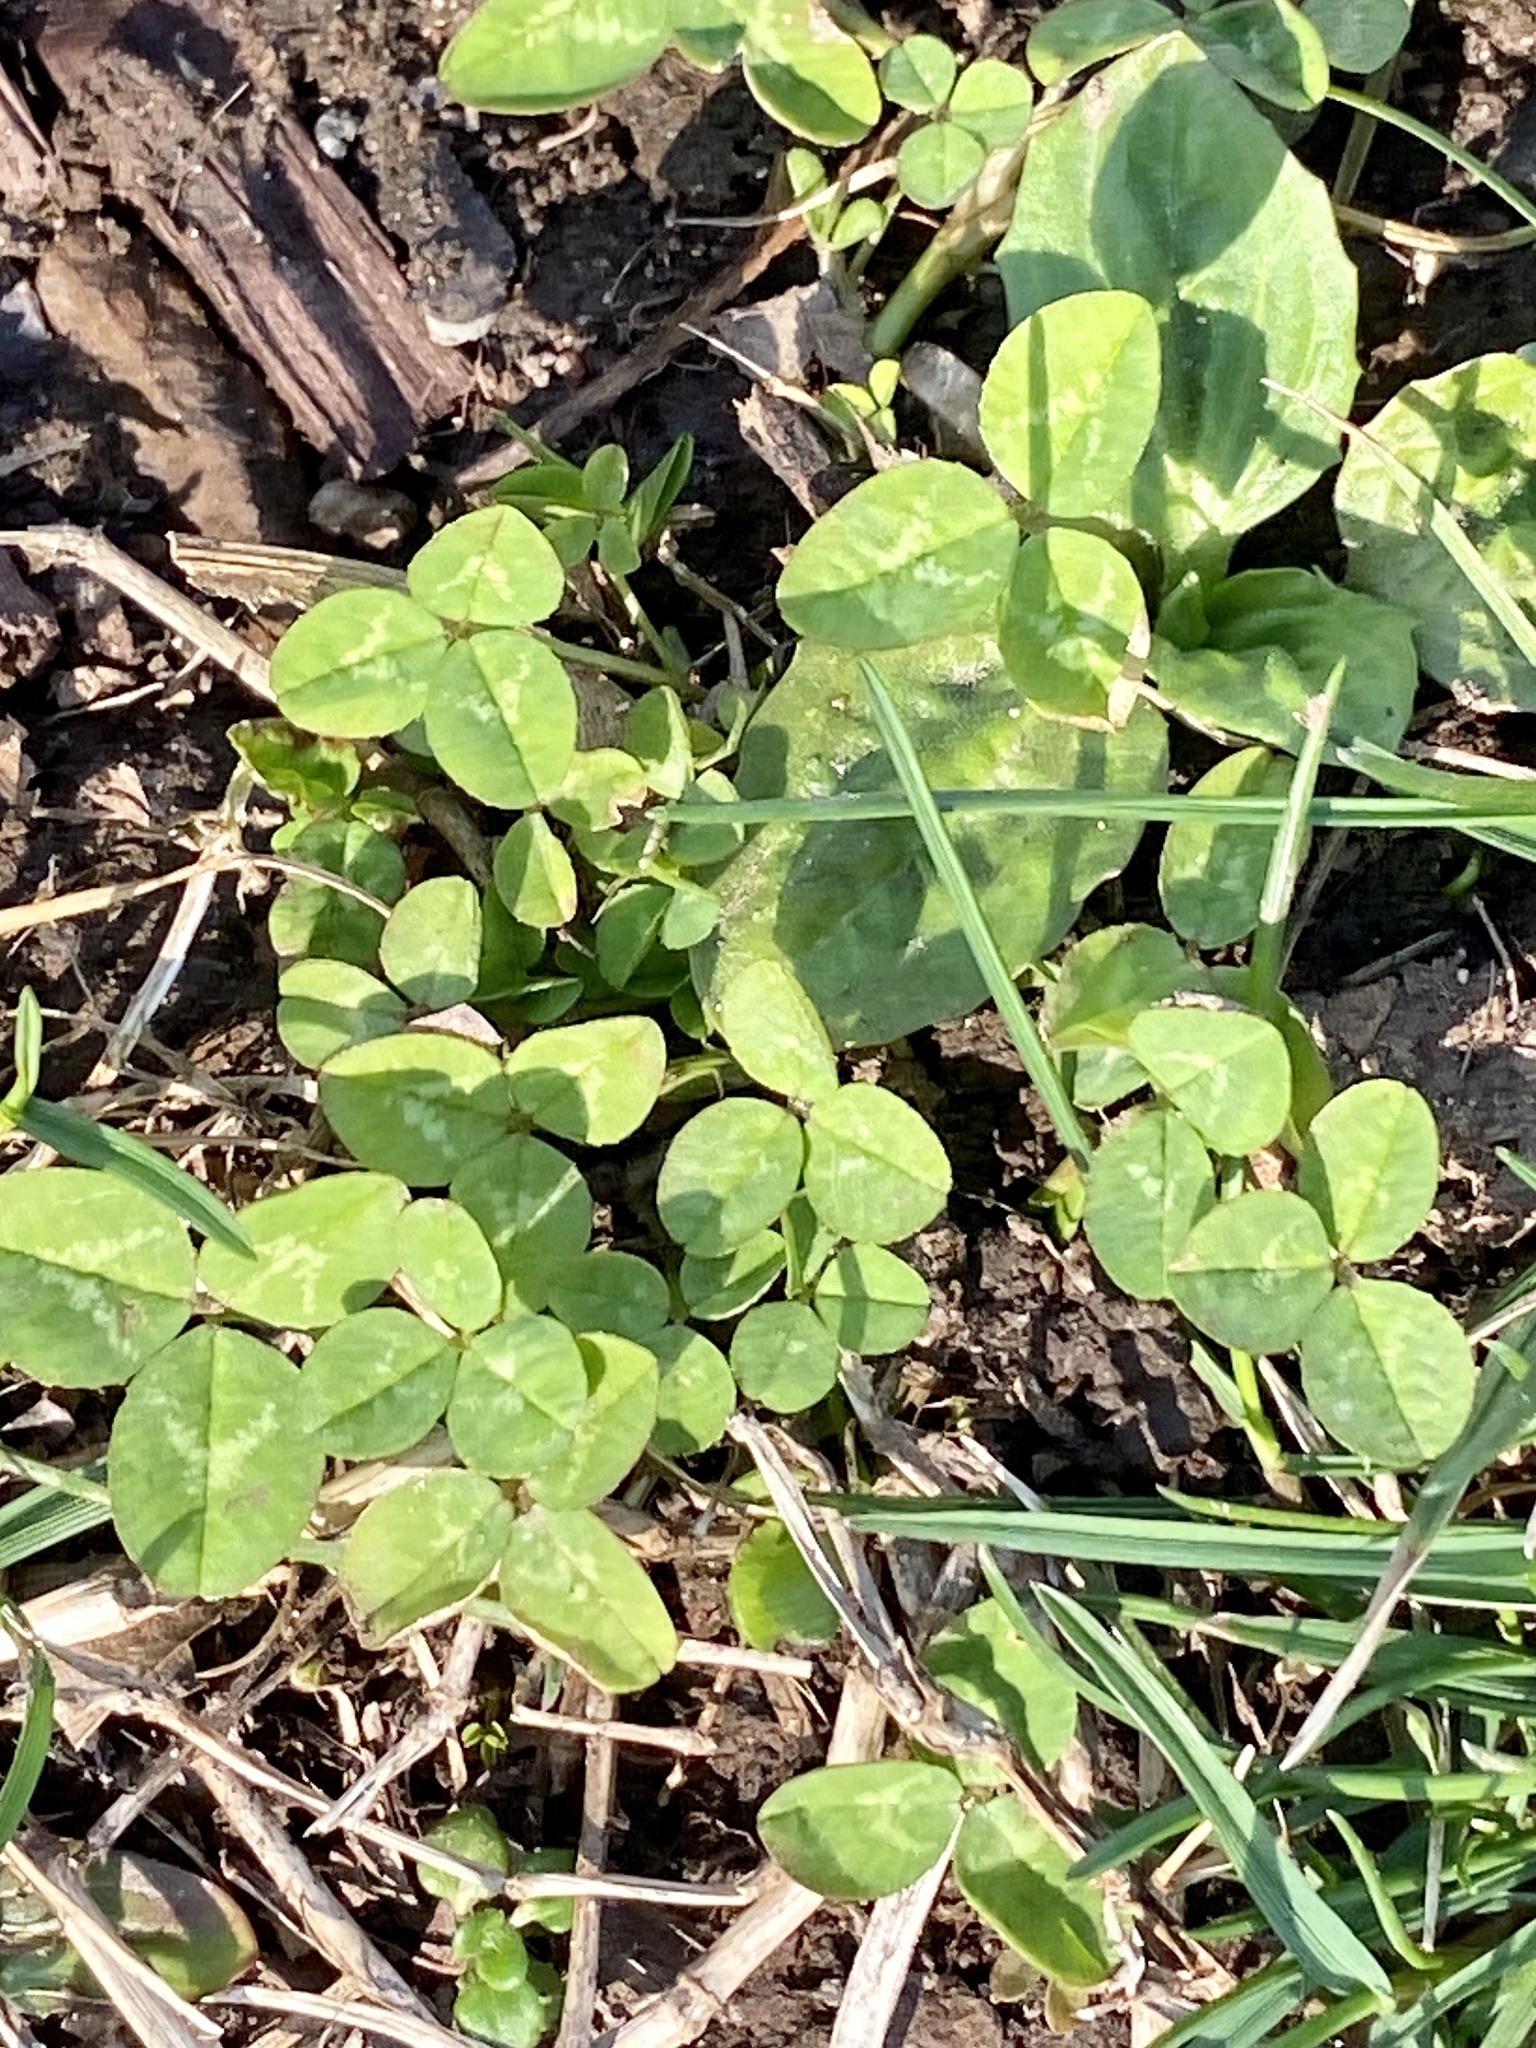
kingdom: Plantae
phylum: Tracheophyta
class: Magnoliopsida
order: Fabales
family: Fabaceae
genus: Trifolium
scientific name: Trifolium repens
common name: White clover
